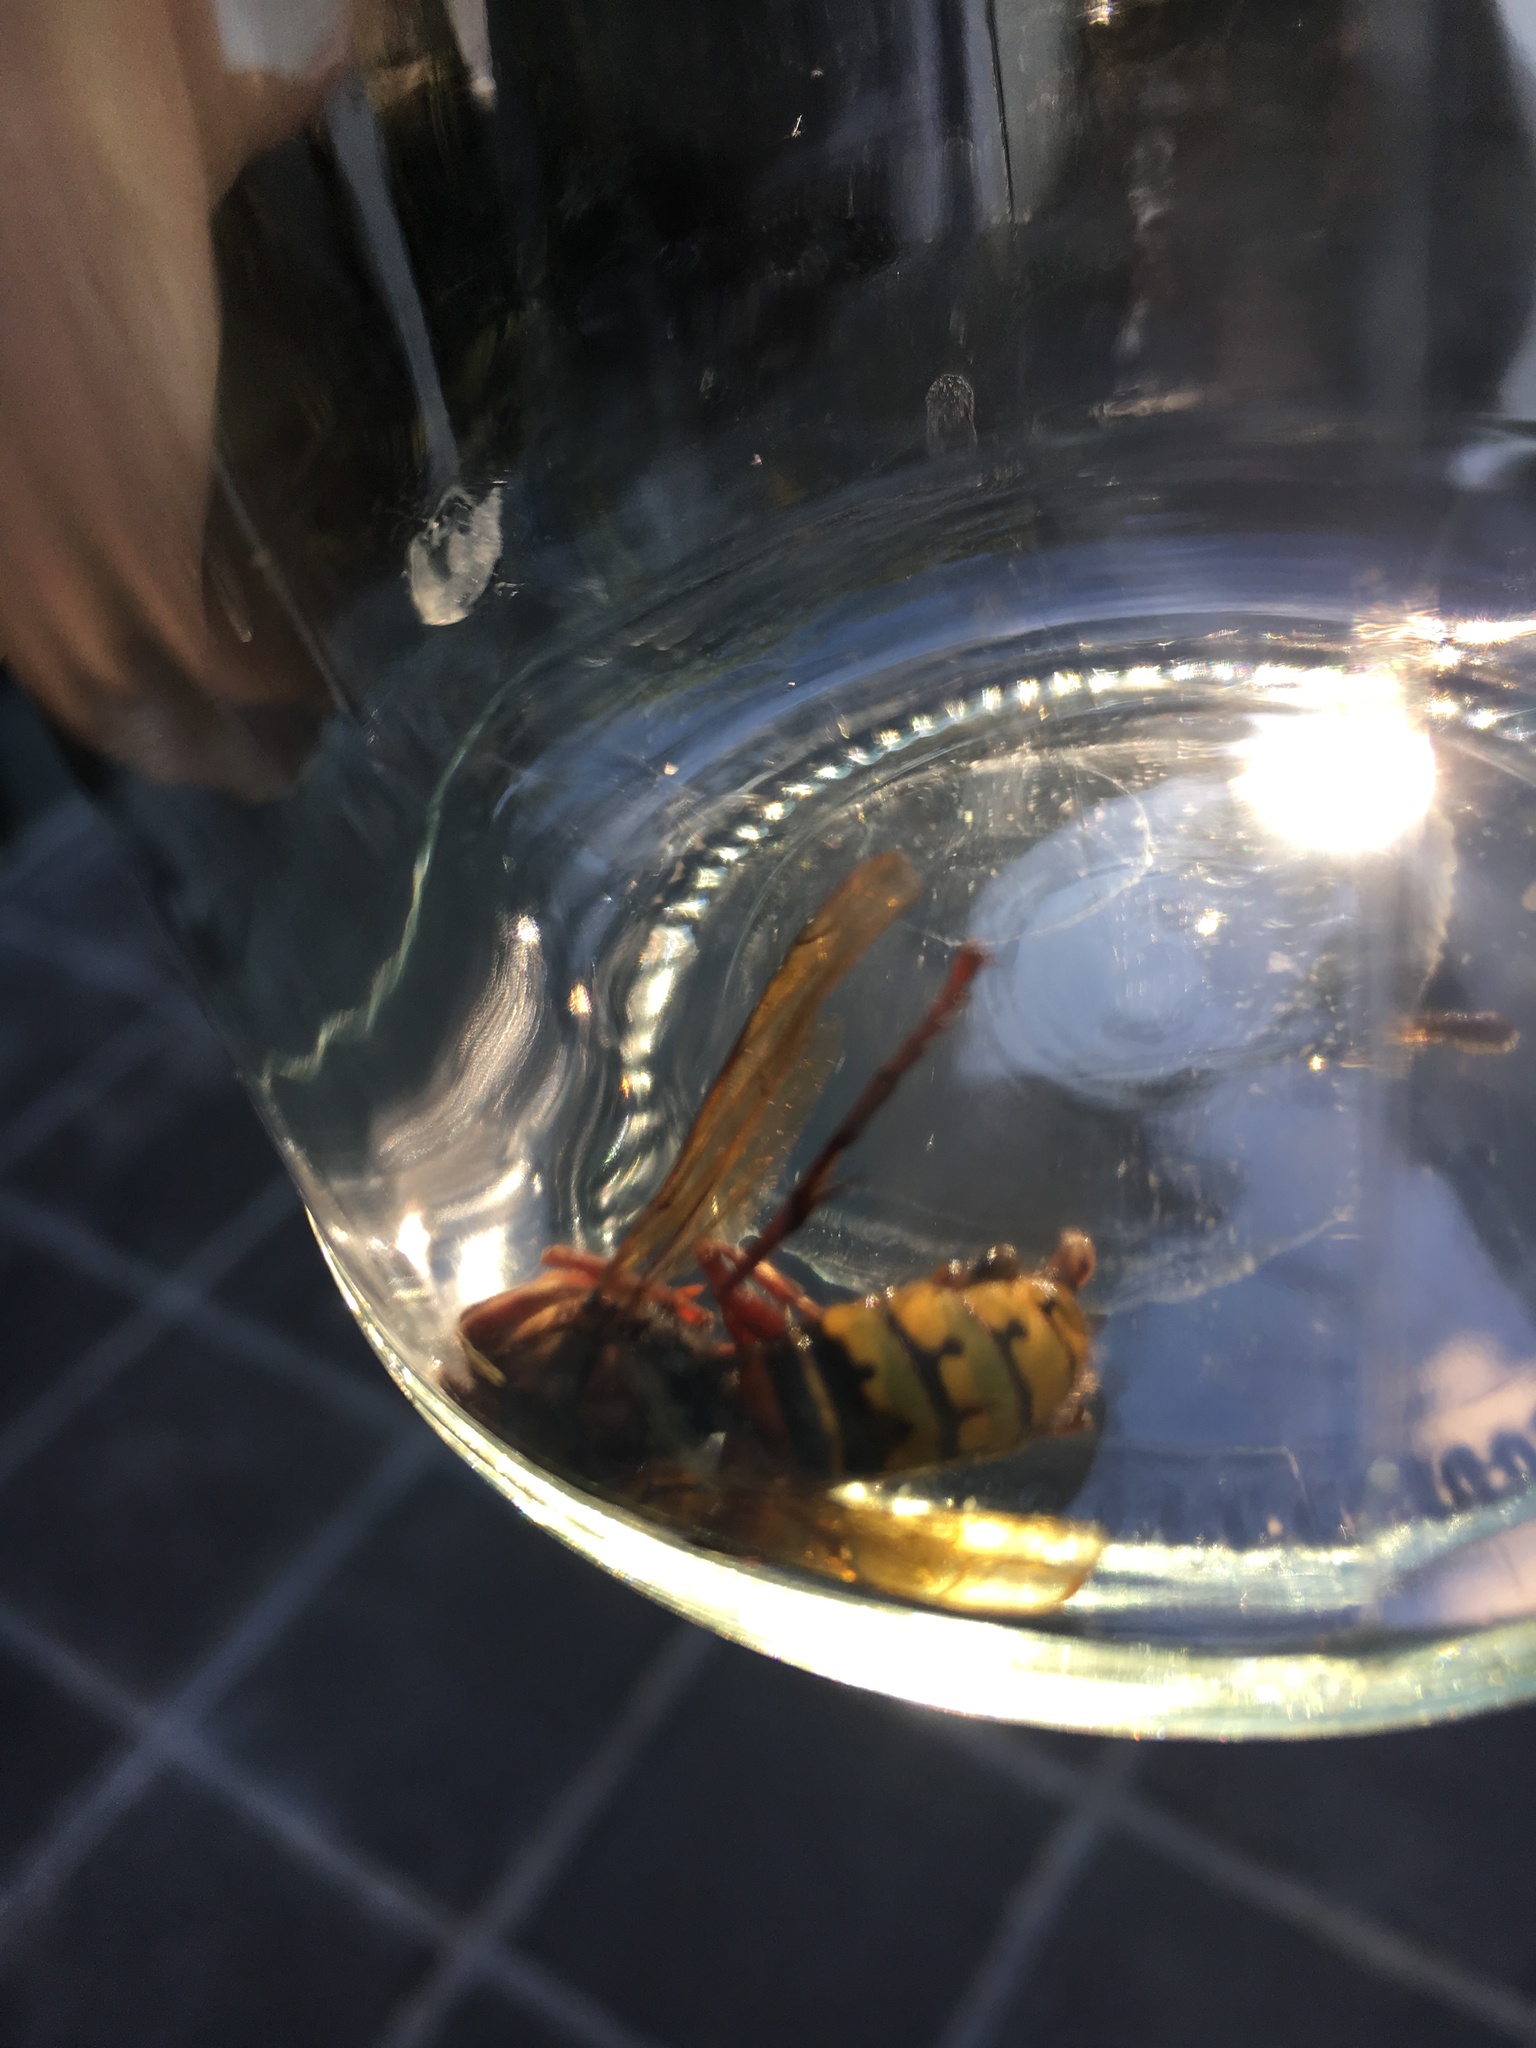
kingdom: Animalia
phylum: Arthropoda
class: Insecta
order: Hymenoptera
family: Vespidae
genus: Vespa
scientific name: Vespa crabro
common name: Hornet
